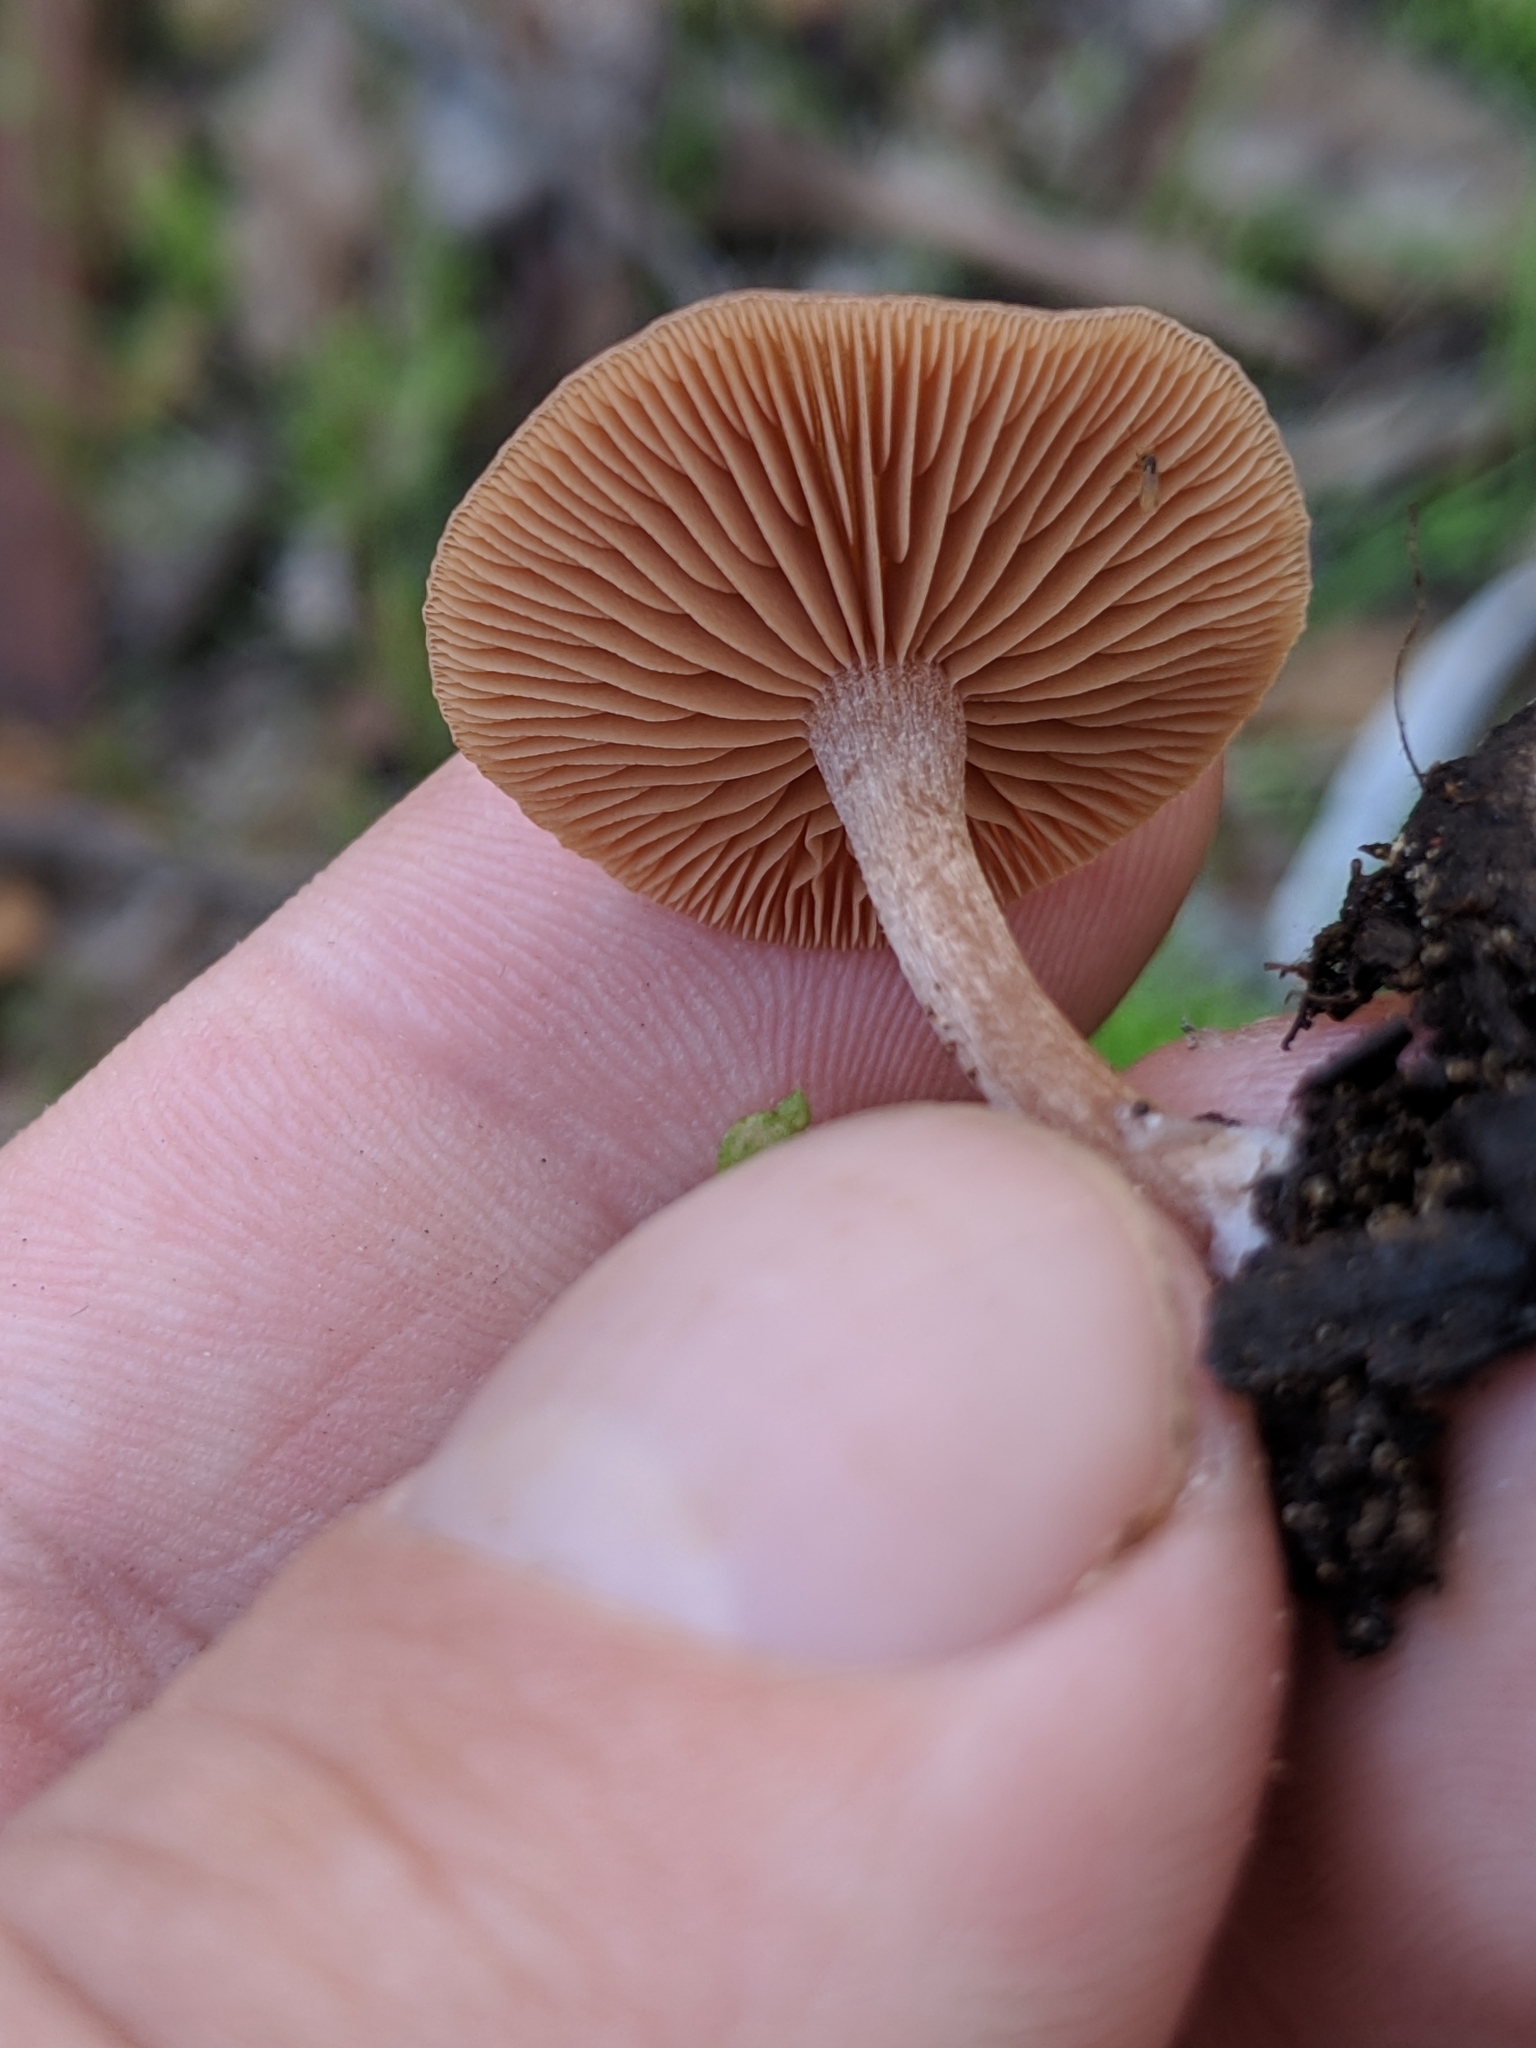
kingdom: Fungi
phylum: Basidiomycota
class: Agaricomycetes
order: Agaricales
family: Tubariaceae
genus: Tubaria
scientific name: Tubaria furfuracea
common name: Scurfy twiglet
